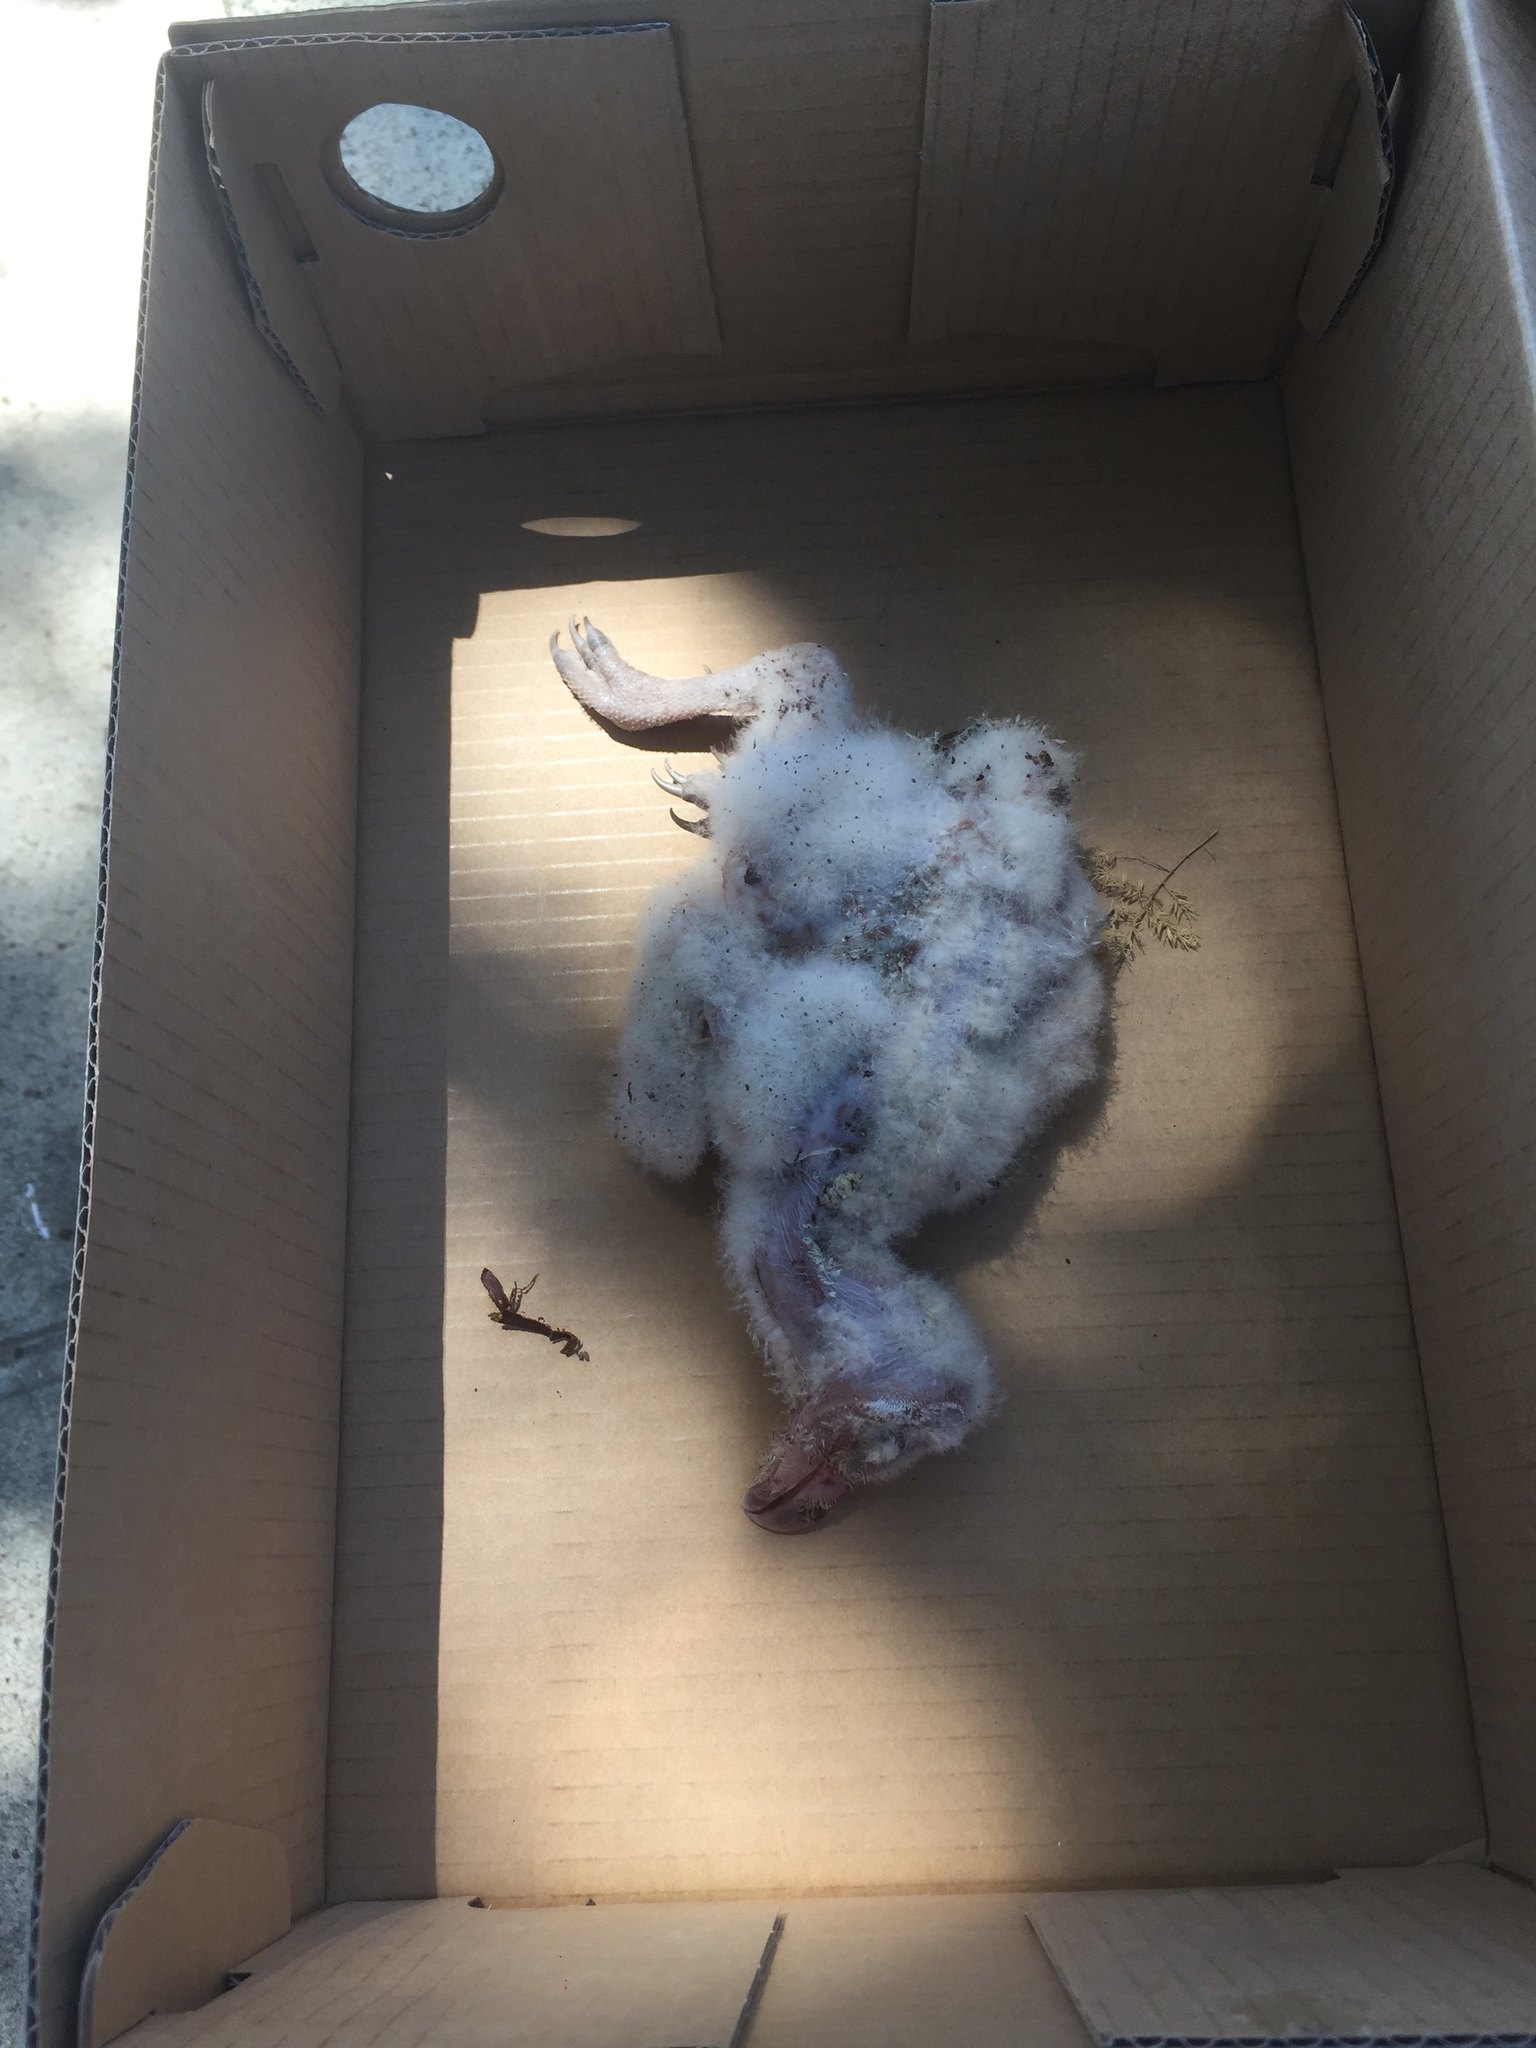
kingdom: Animalia
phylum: Chordata
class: Aves
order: Strigiformes
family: Tytonidae
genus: Tyto
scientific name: Tyto alba
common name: Barn owl
